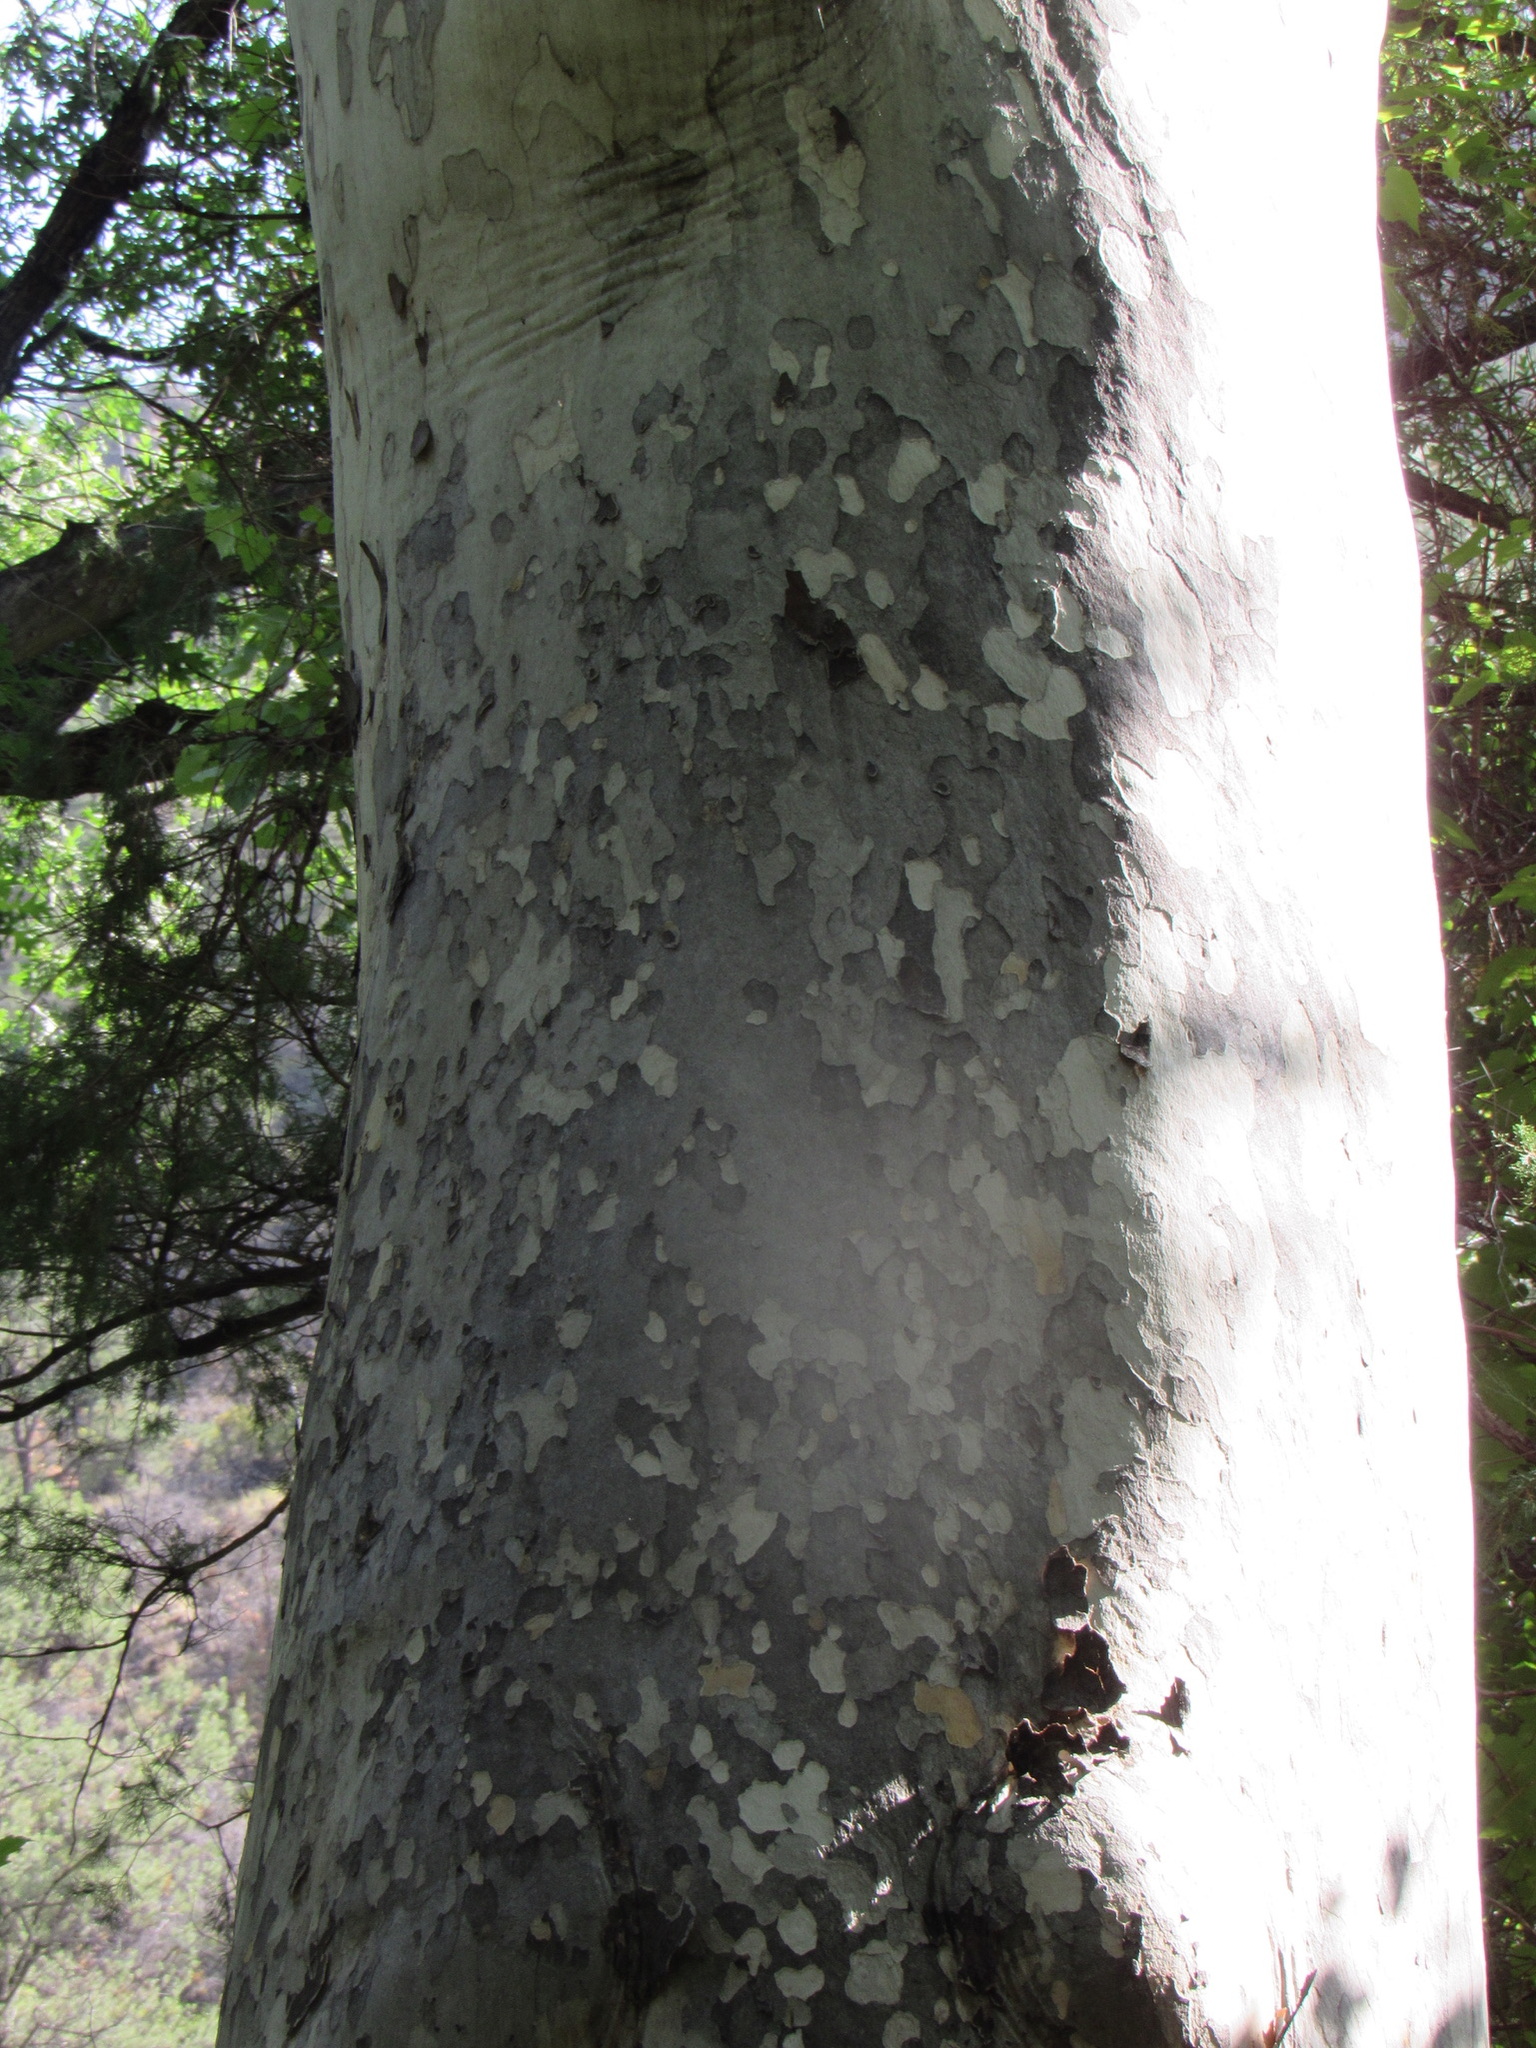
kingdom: Plantae
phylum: Tracheophyta
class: Magnoliopsida
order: Proteales
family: Platanaceae
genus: Platanus
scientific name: Platanus wrightii
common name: Arizona sycamore
